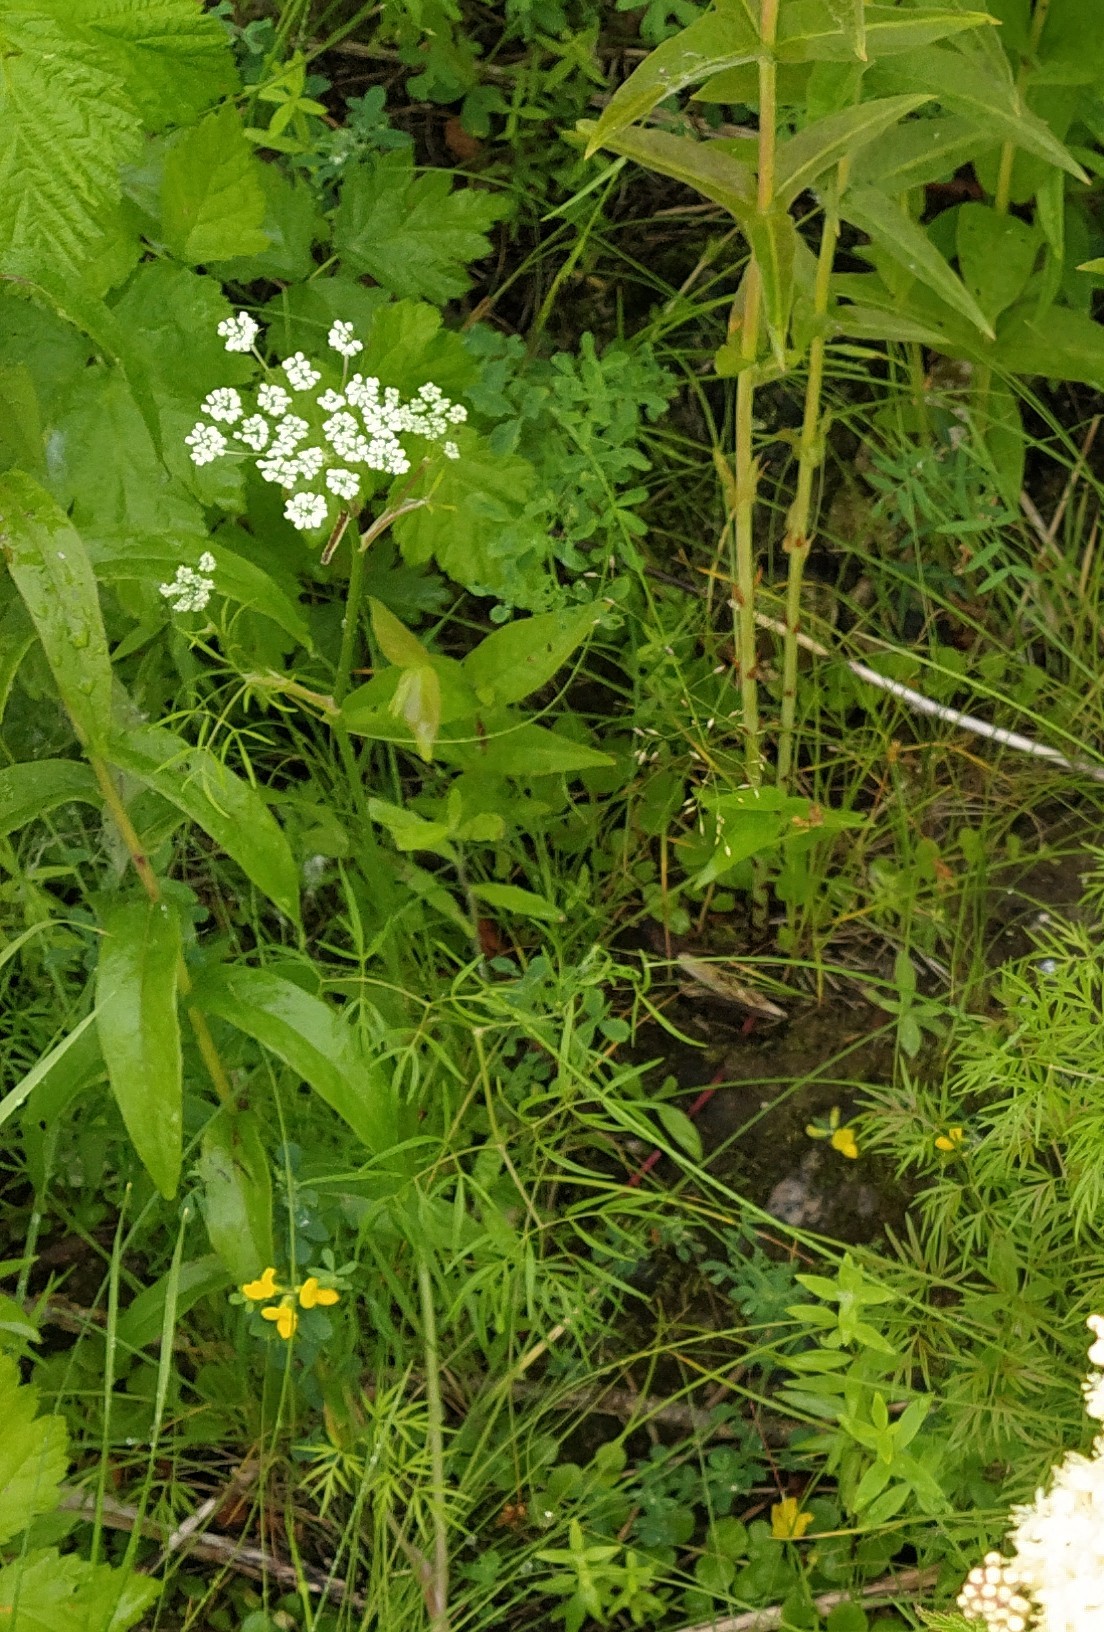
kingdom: Plantae
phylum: Tracheophyta
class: Magnoliopsida
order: Apiales
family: Apiaceae
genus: Cenolophium
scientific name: Cenolophium fischeri
